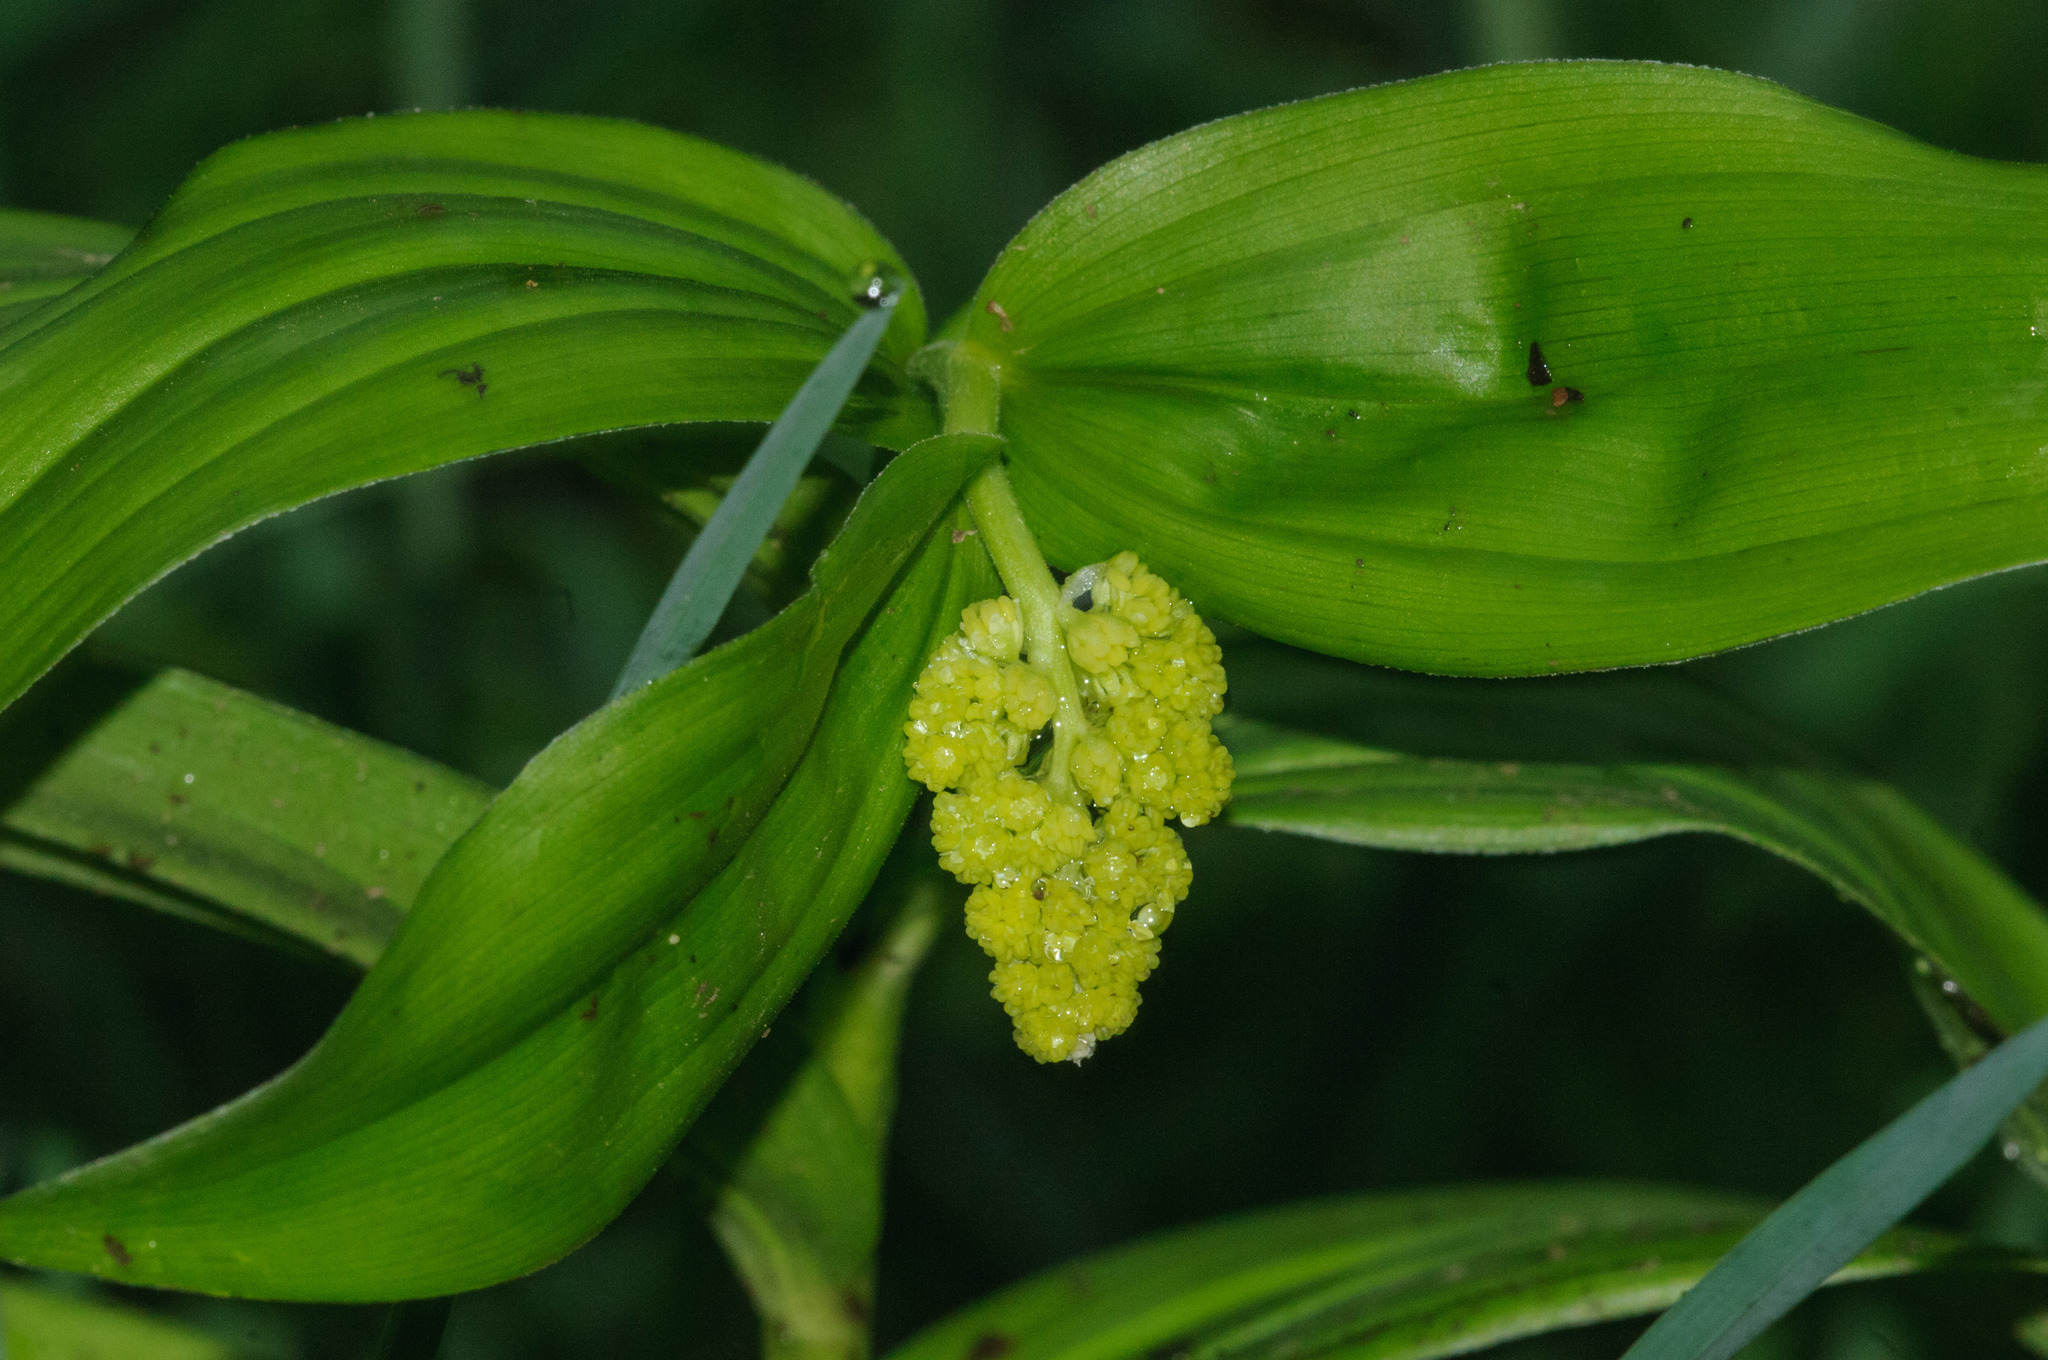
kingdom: Plantae
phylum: Tracheophyta
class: Liliopsida
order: Asparagales
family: Asparagaceae
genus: Maianthemum
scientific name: Maianthemum racemosum
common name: False spikenard
